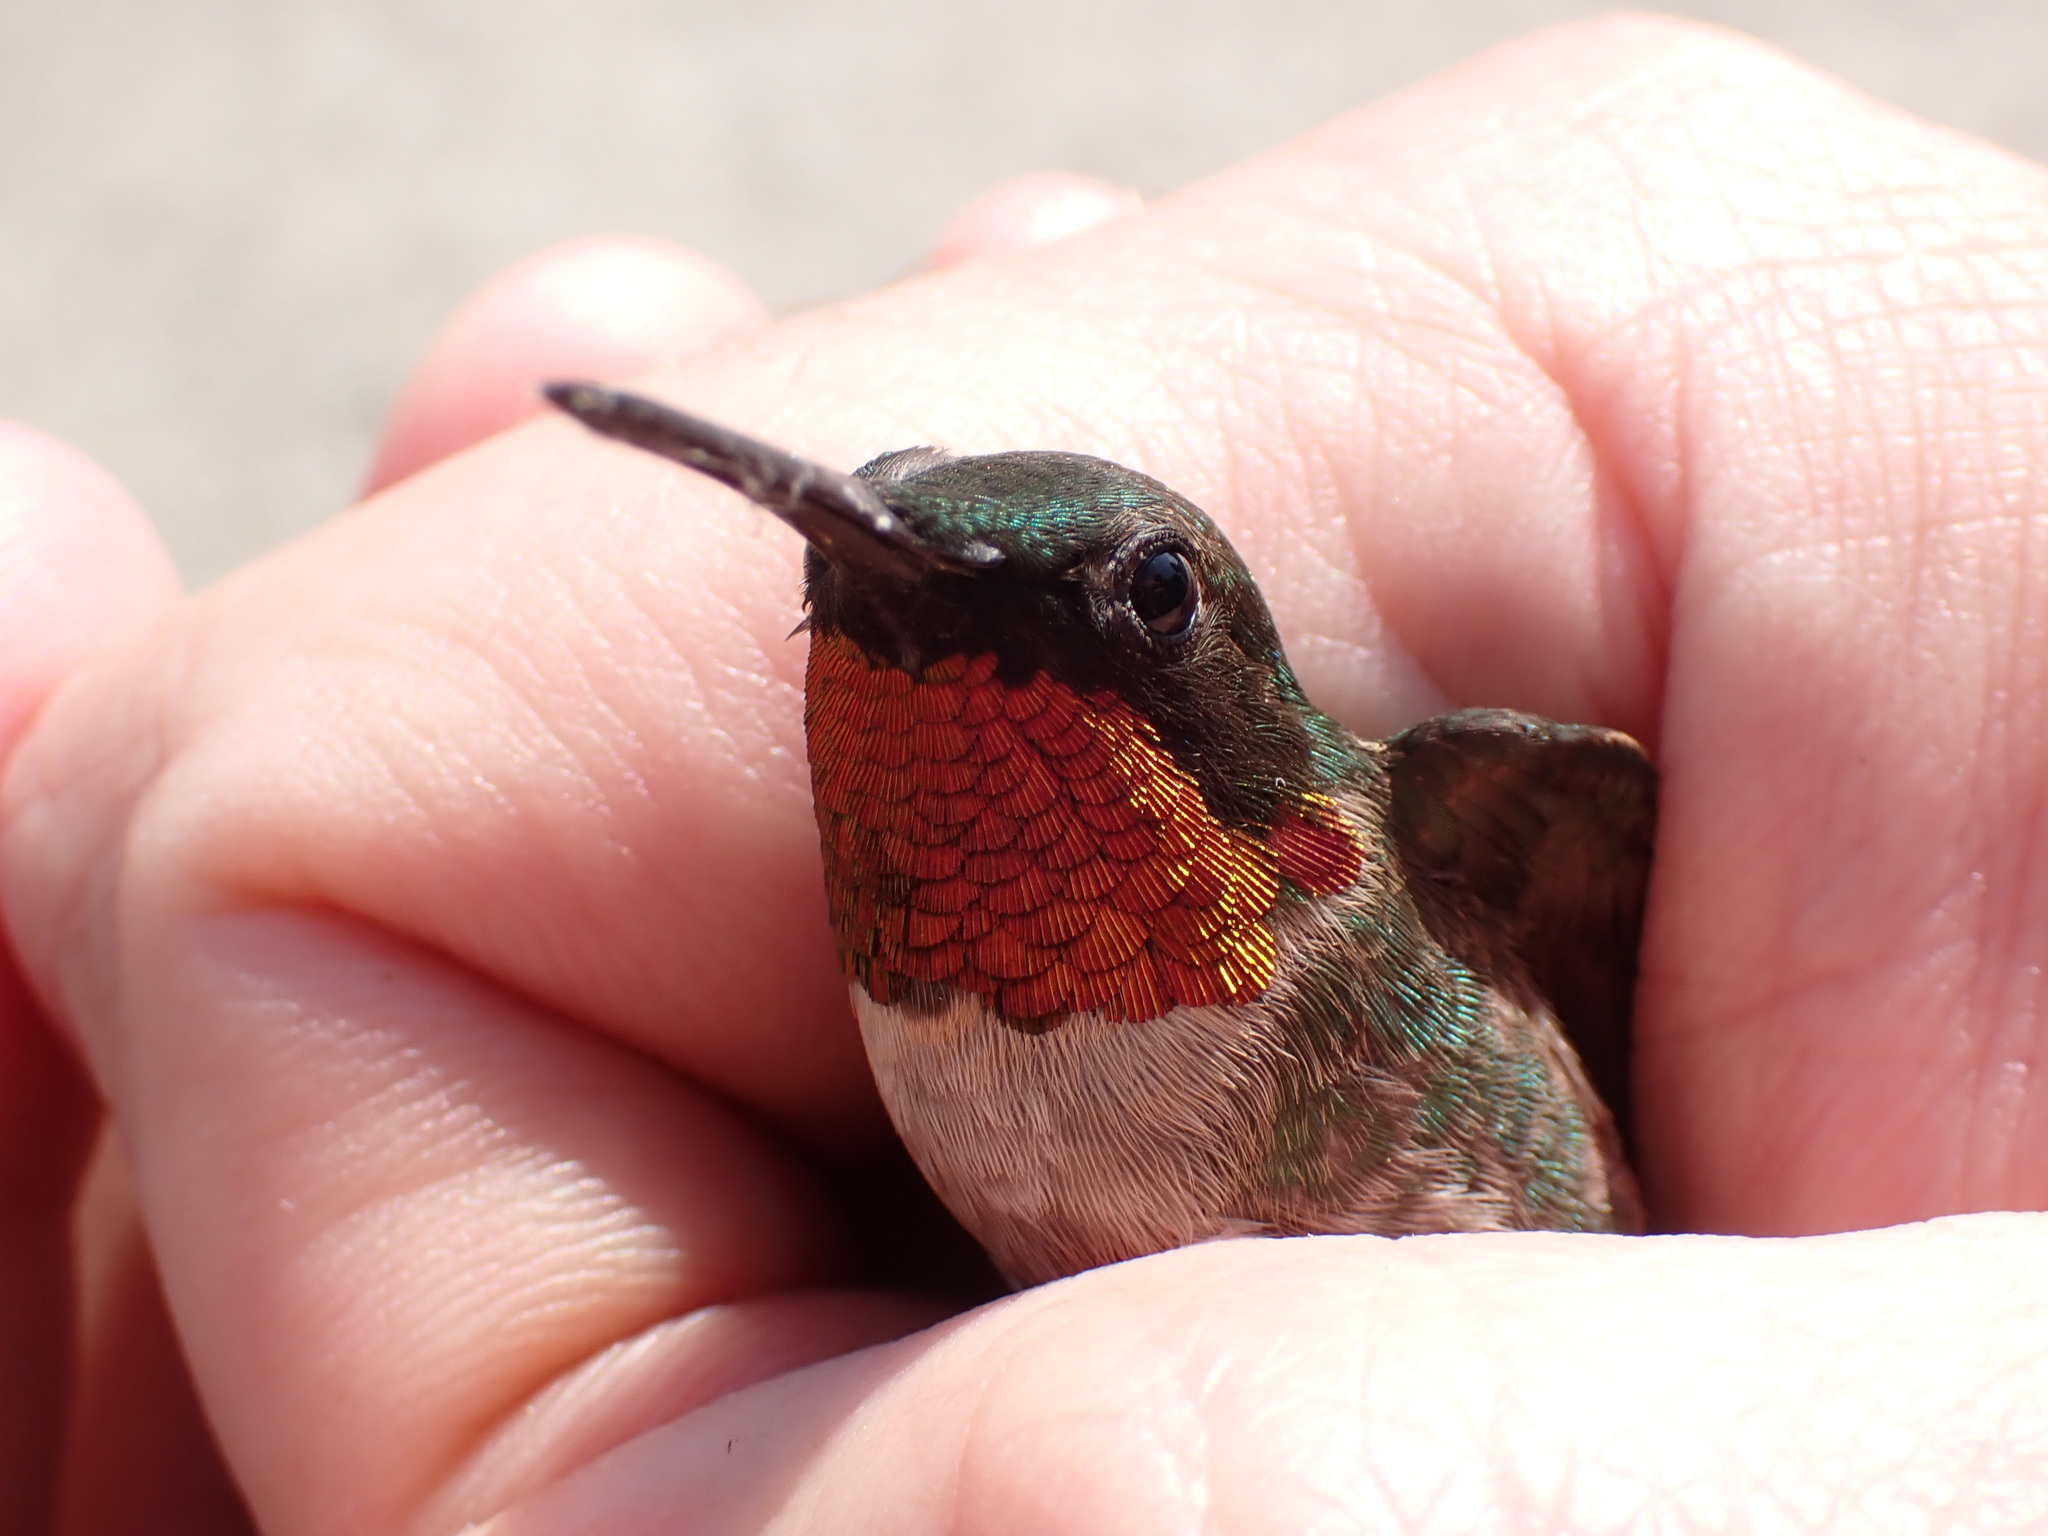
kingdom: Animalia
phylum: Chordata
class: Aves
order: Apodiformes
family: Trochilidae
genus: Archilochus
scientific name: Archilochus colubris
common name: Ruby-throated hummingbird
